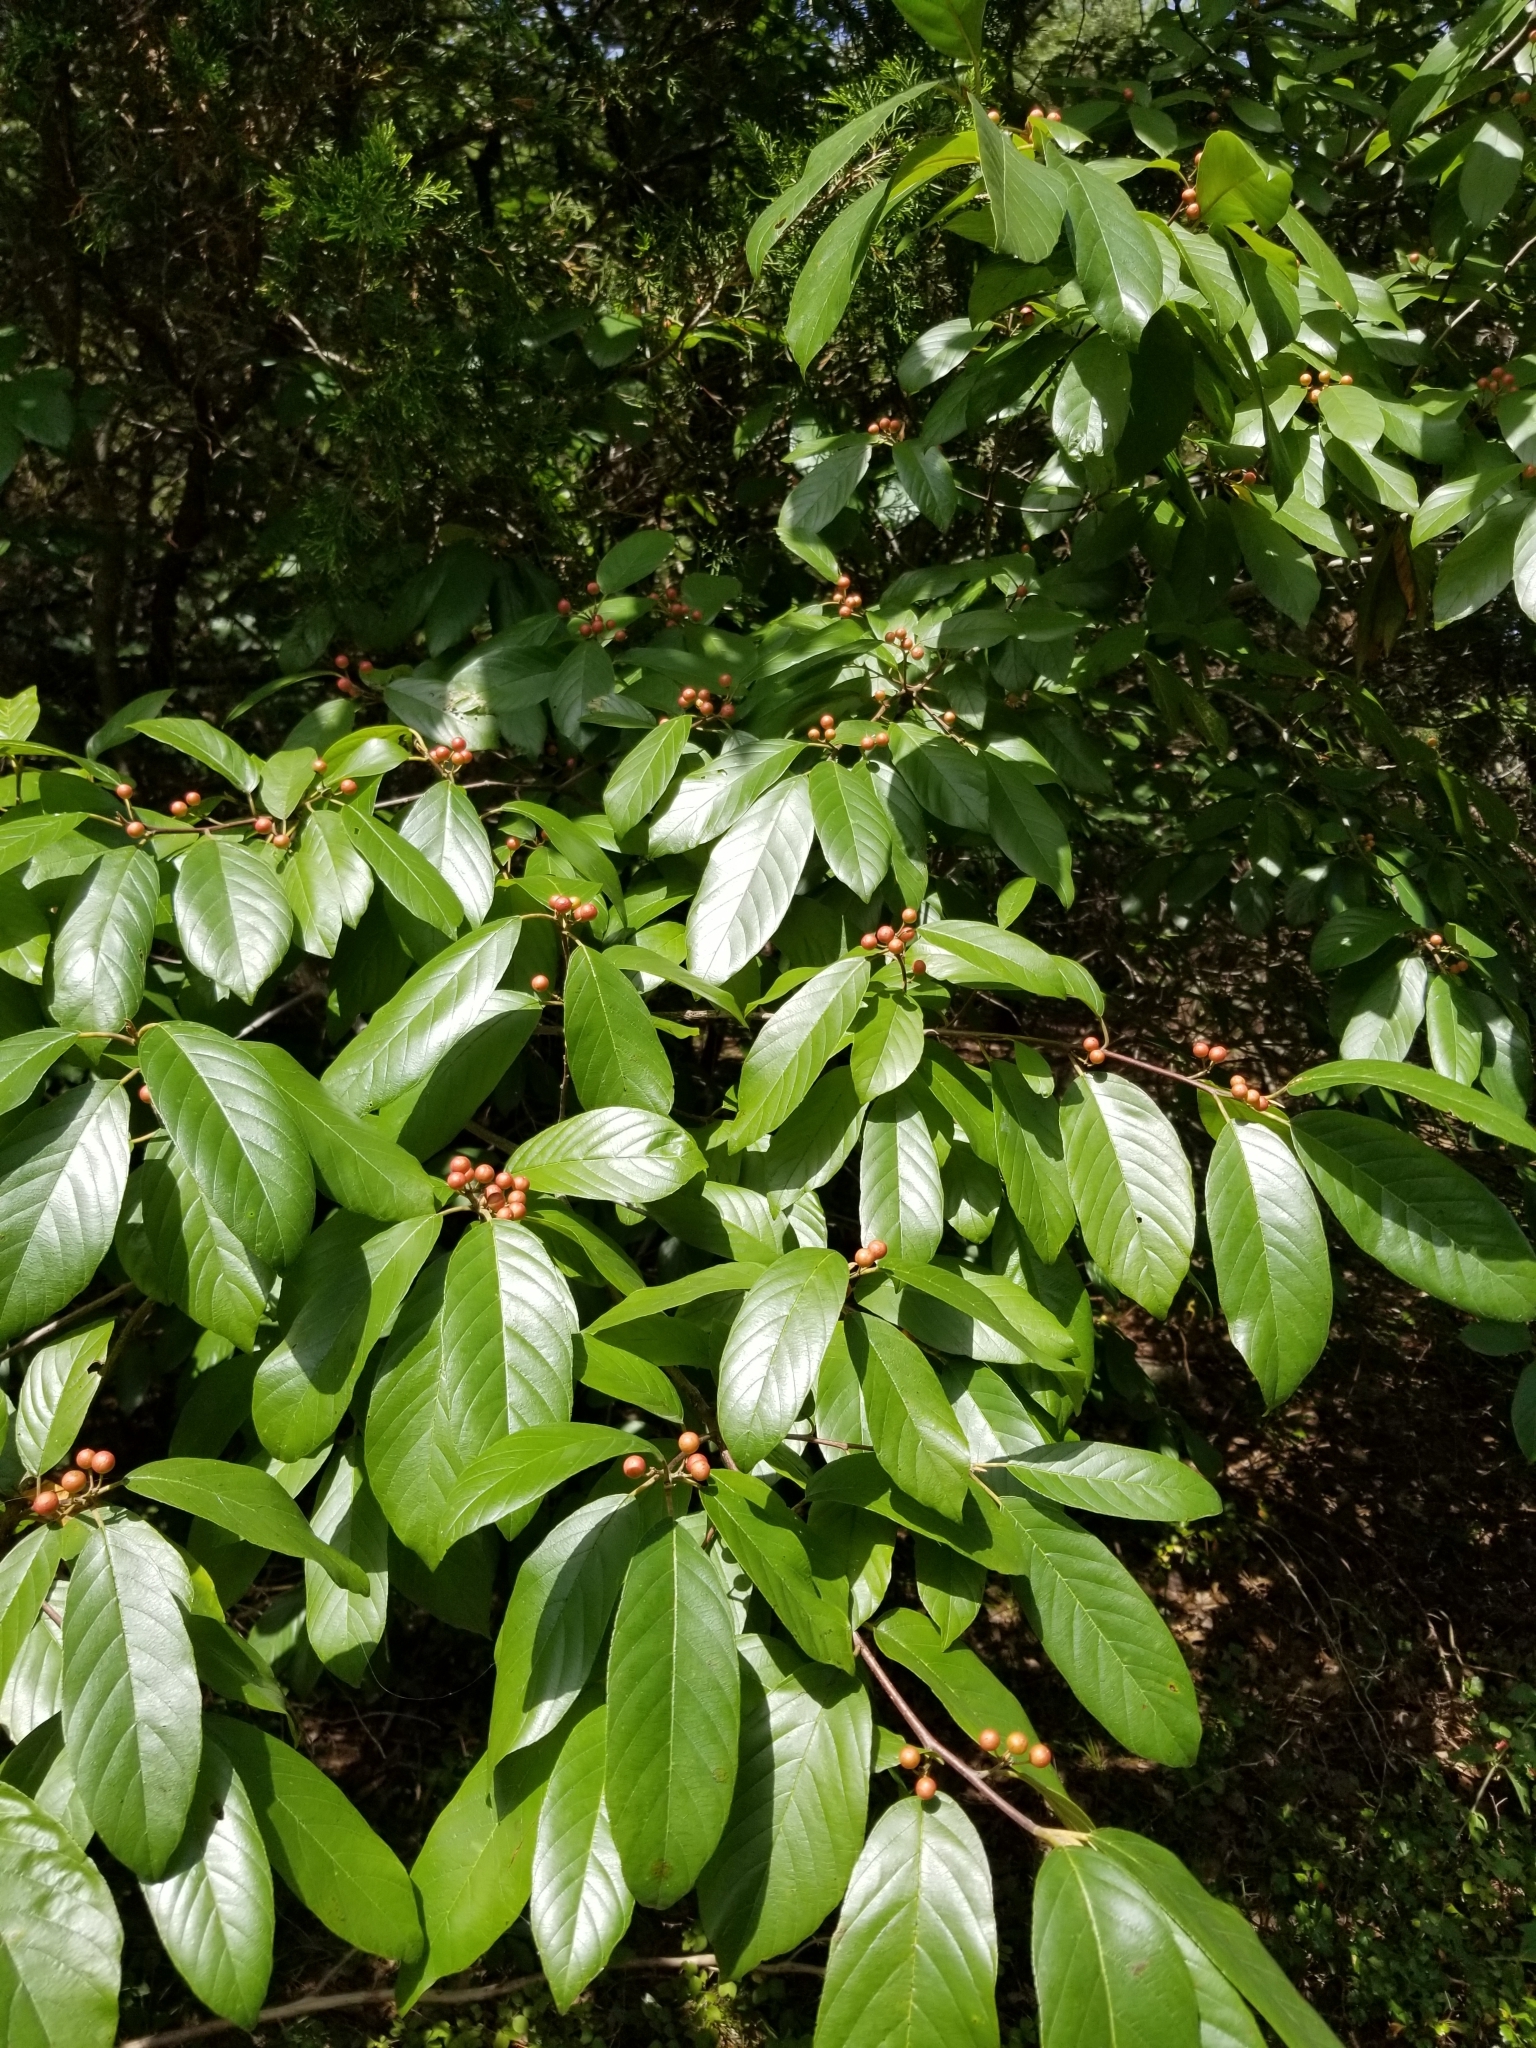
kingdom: Plantae
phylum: Tracheophyta
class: Magnoliopsida
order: Rosales
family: Rhamnaceae
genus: Frangula
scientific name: Frangula caroliniana
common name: Carolina buckthorn
